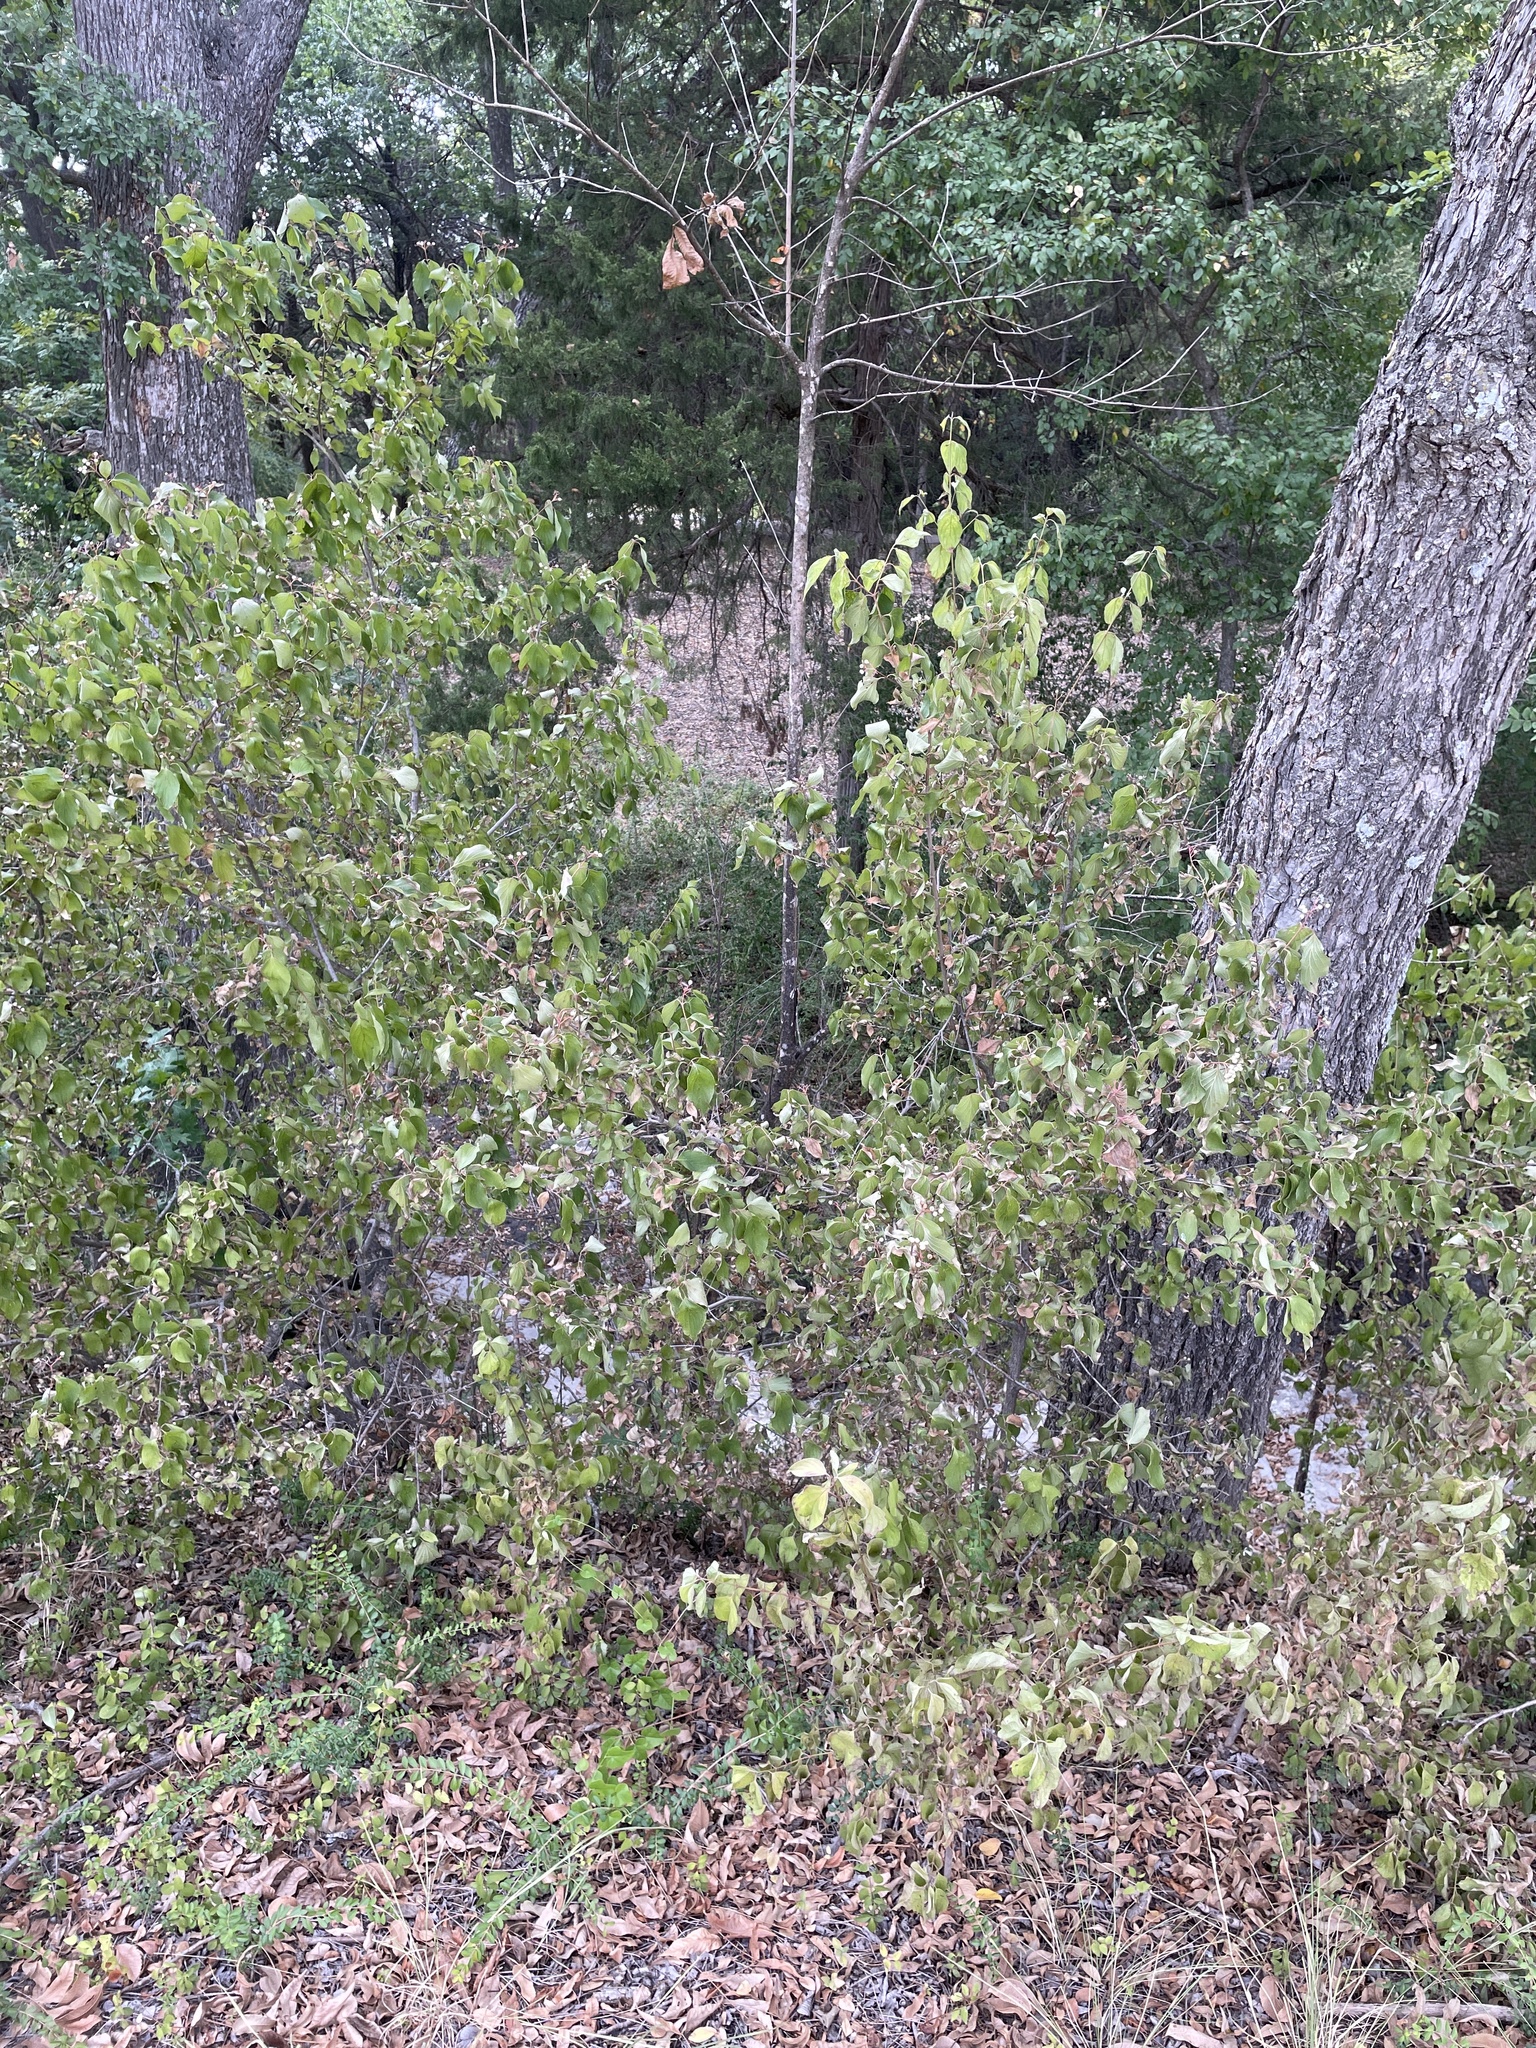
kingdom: Plantae
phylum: Tracheophyta
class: Magnoliopsida
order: Cornales
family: Cornaceae
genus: Cornus
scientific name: Cornus drummondii
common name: Rough-leaf dogwood
